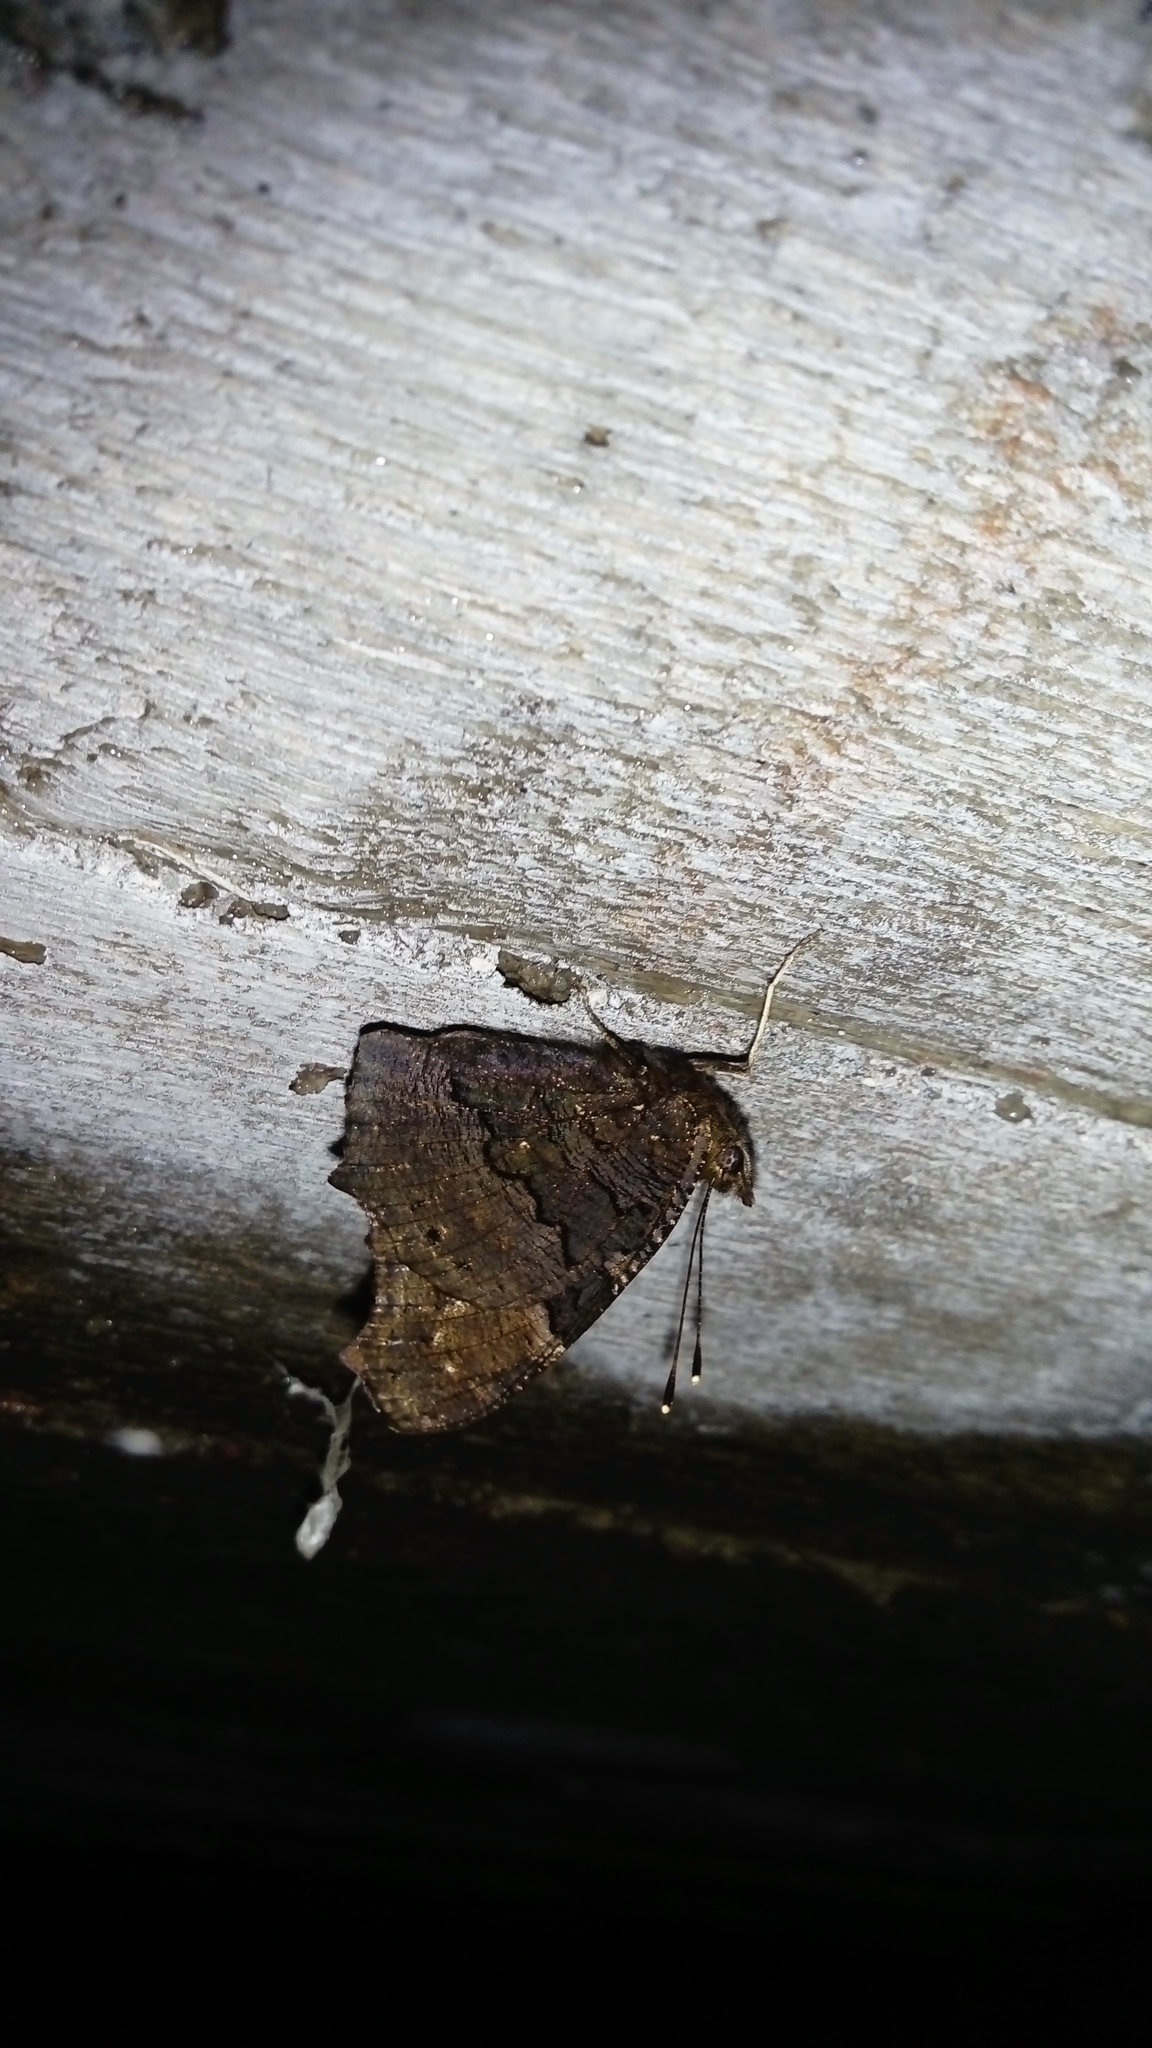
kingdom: Animalia
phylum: Arthropoda
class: Insecta
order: Lepidoptera
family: Nymphalidae
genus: Aglais
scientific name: Aglais io
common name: Peacock
